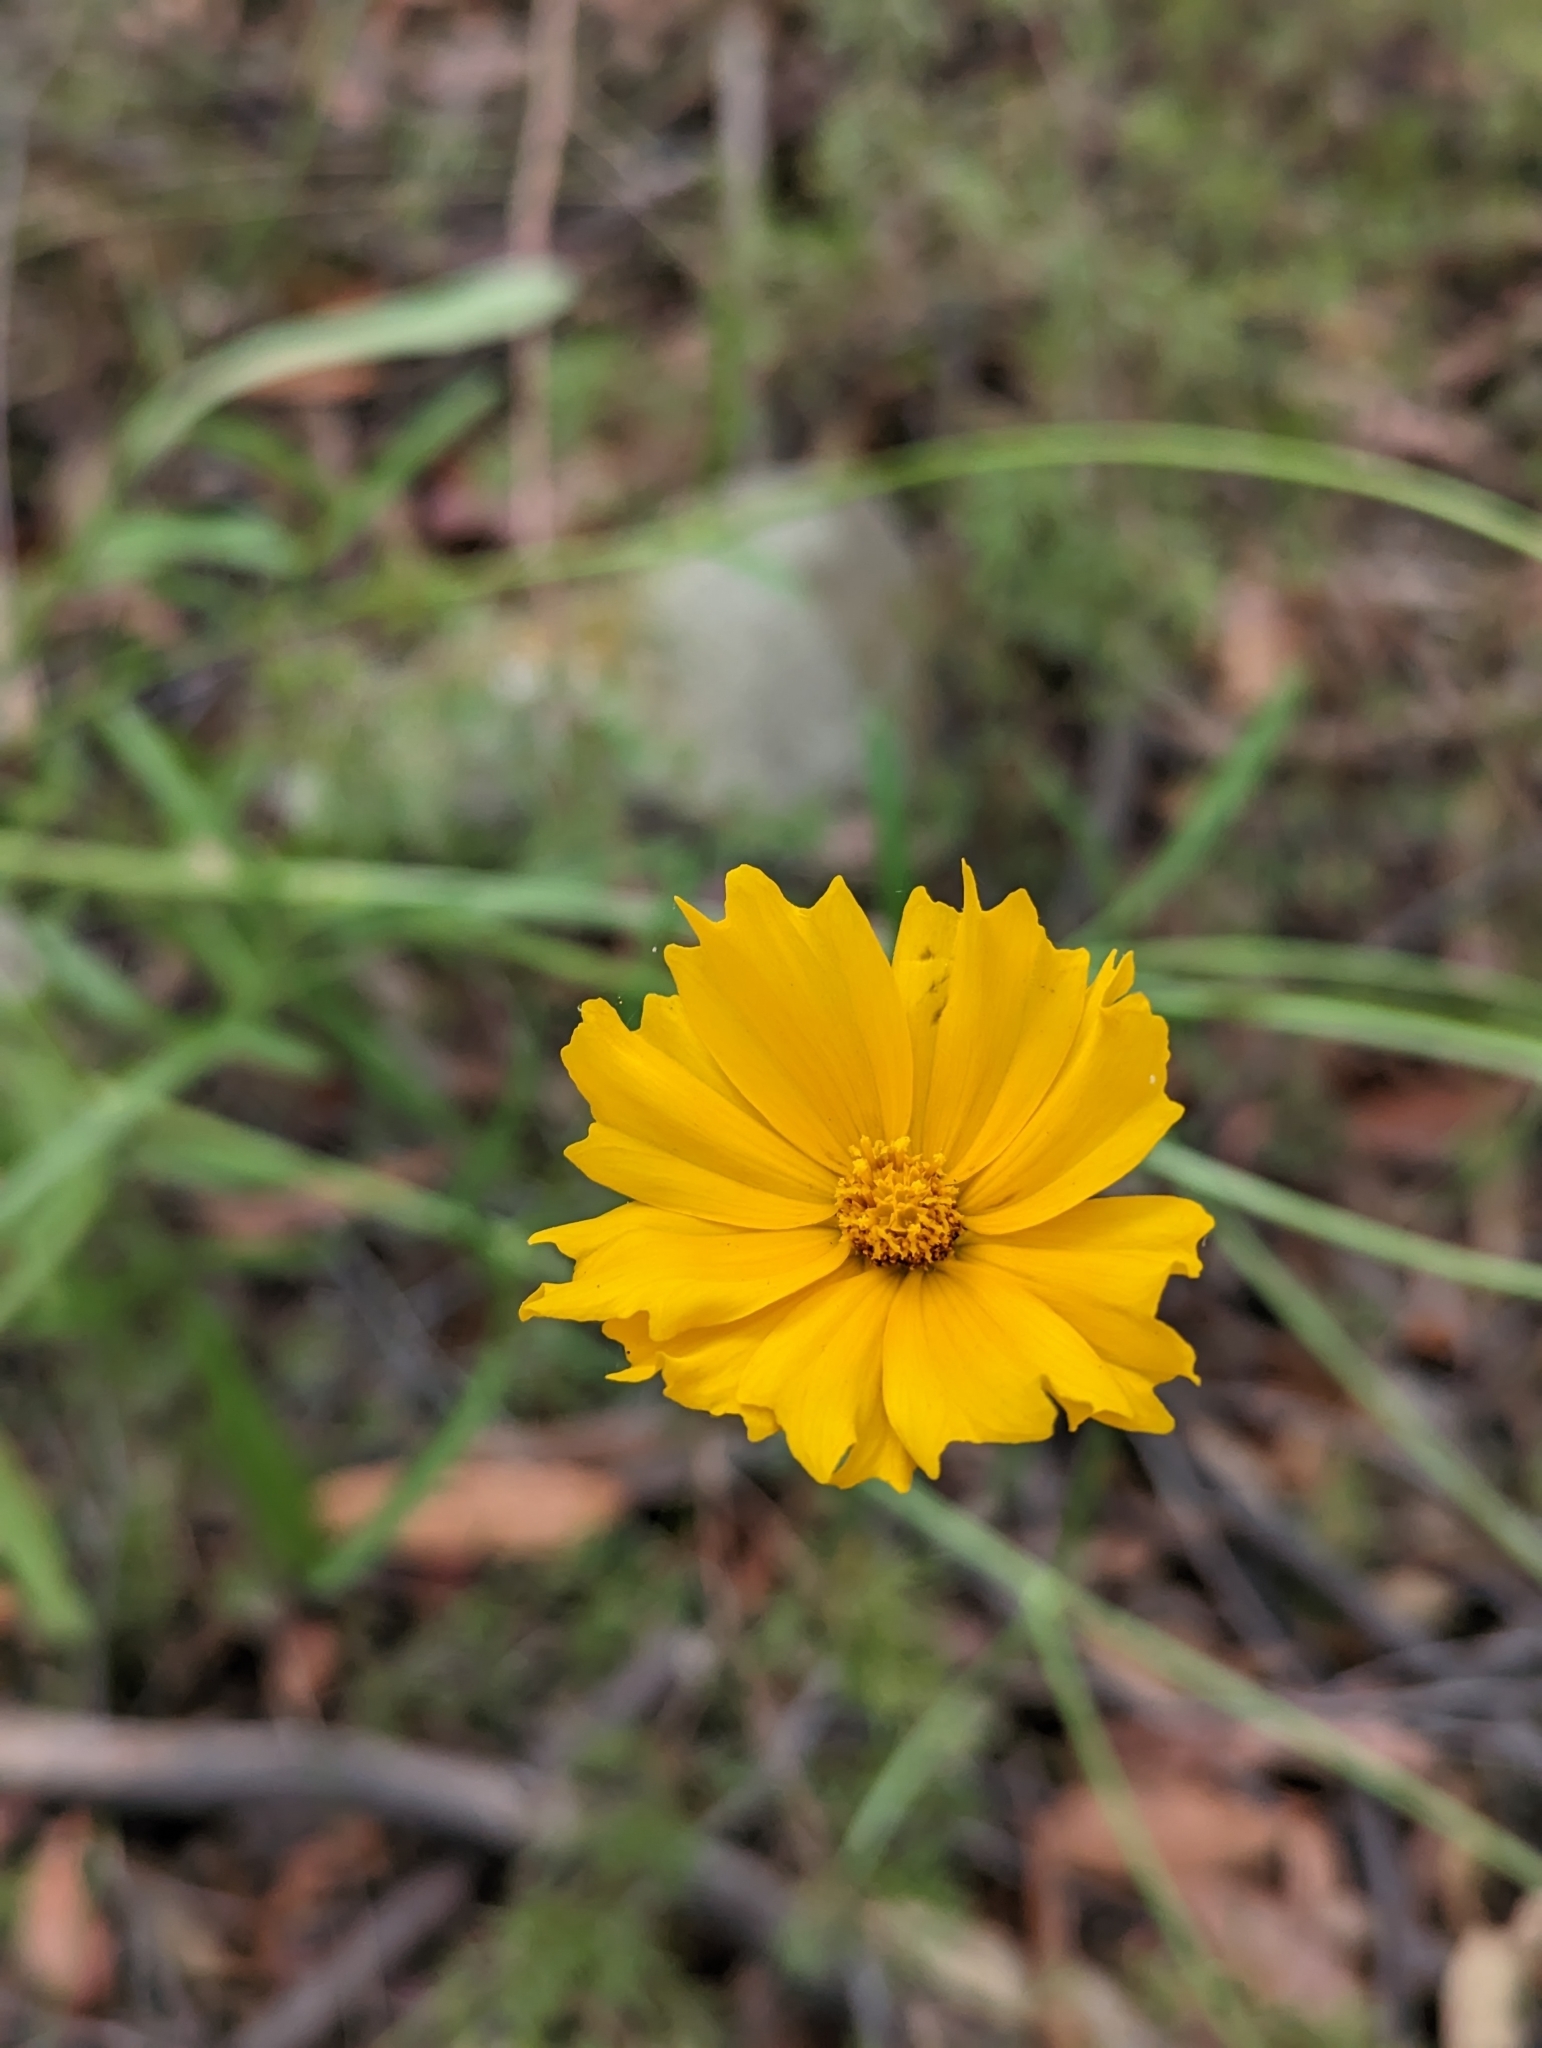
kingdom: Plantae
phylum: Tracheophyta
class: Magnoliopsida
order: Asterales
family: Asteraceae
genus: Coreopsis
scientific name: Coreopsis lanceolata
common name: Garden coreopsis
